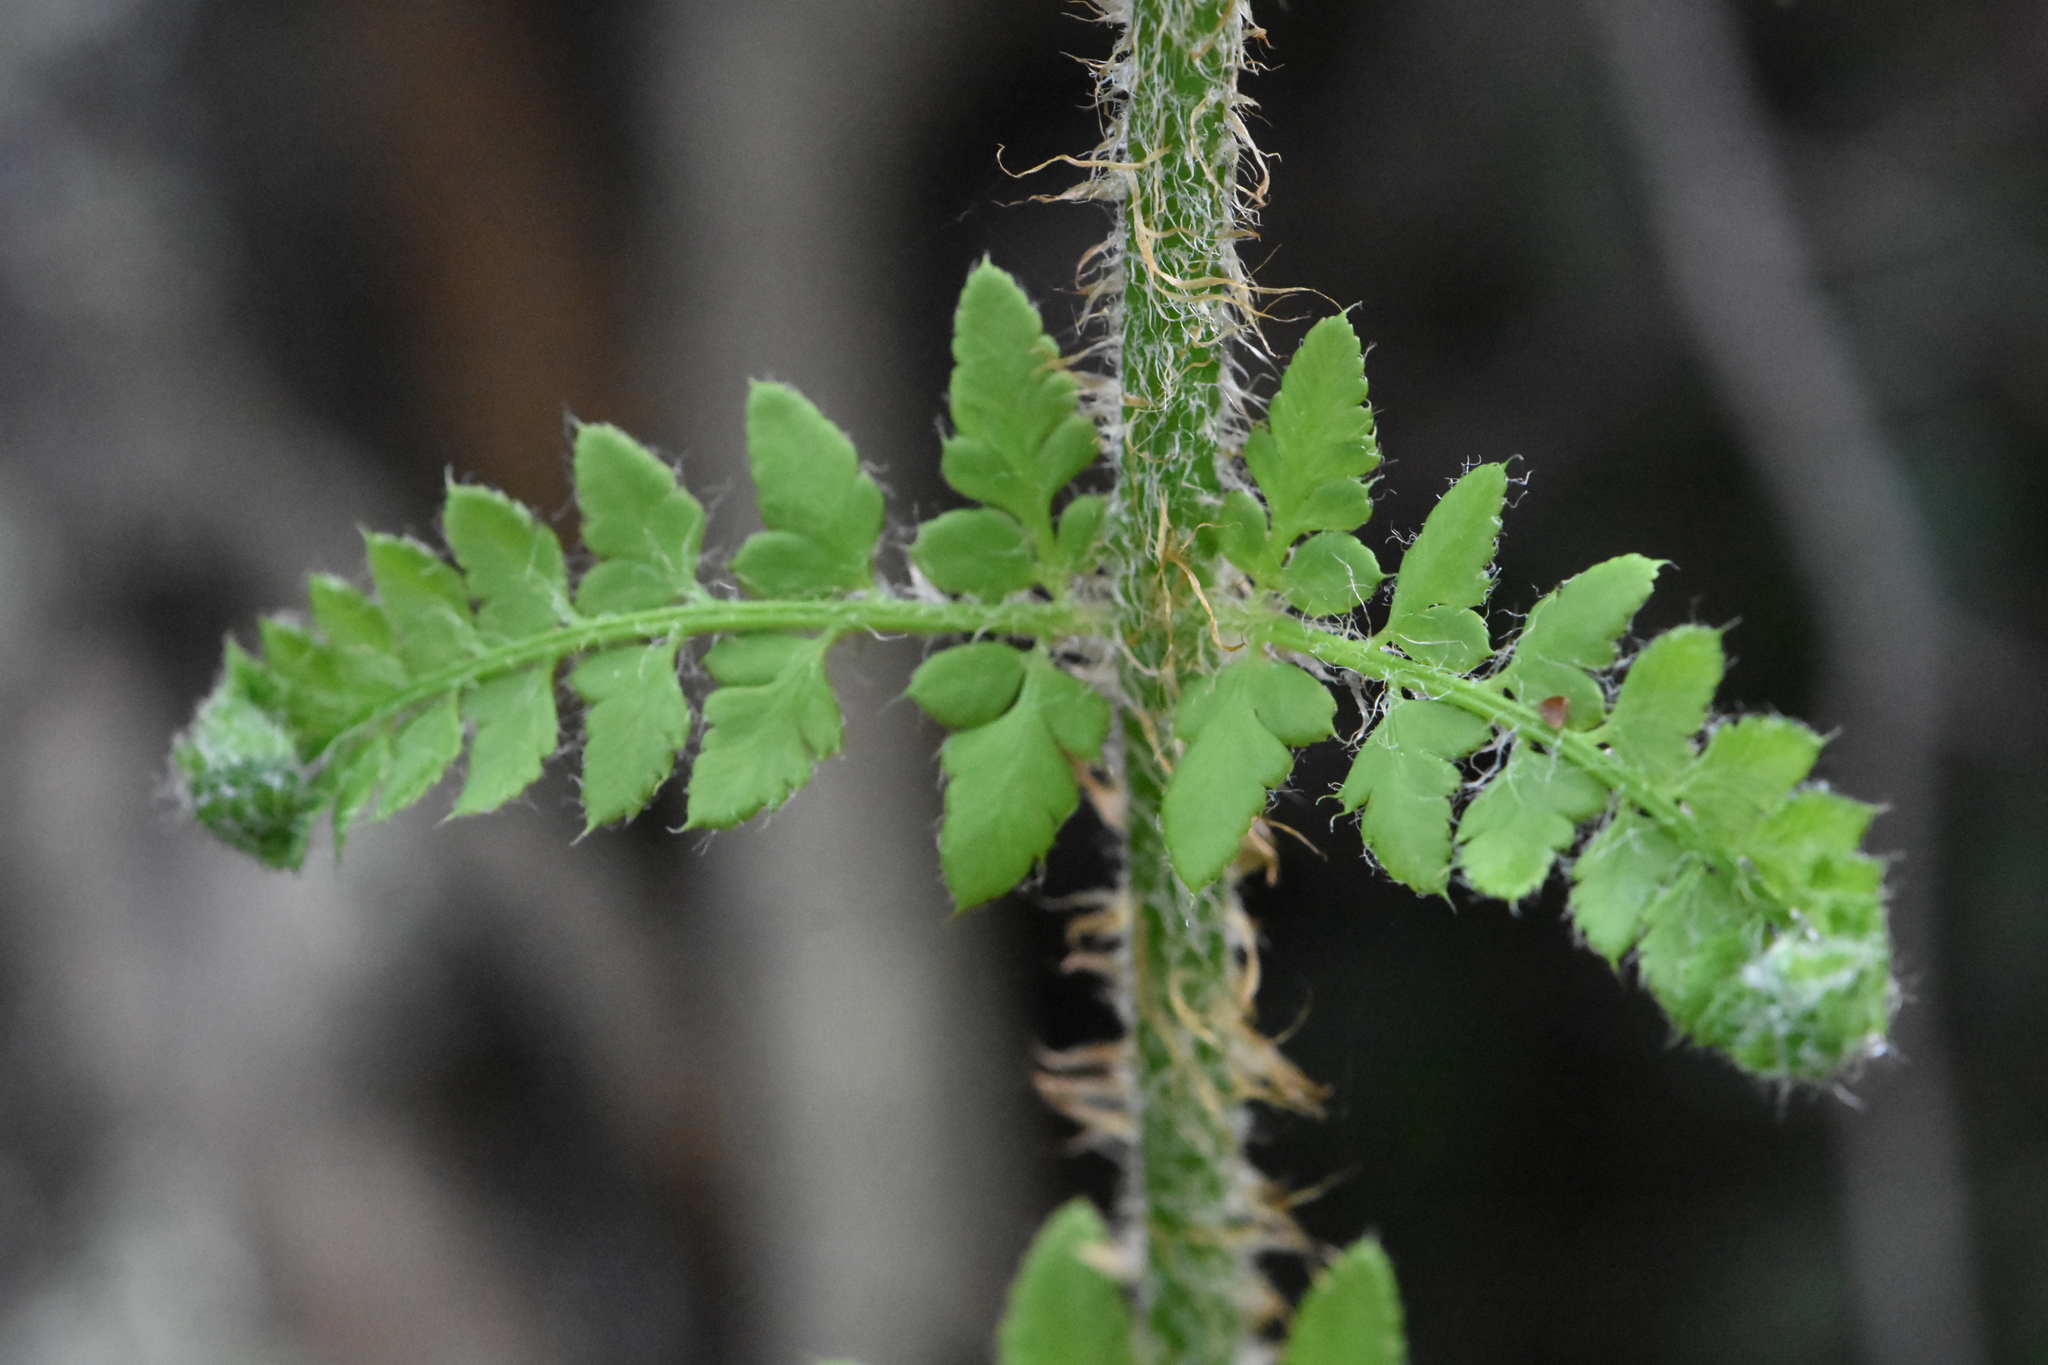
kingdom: Plantae
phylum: Tracheophyta
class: Polypodiopsida
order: Polypodiales
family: Dryopteridaceae
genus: Polystichum
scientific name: Polystichum setiferum
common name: Soft shield-fern
